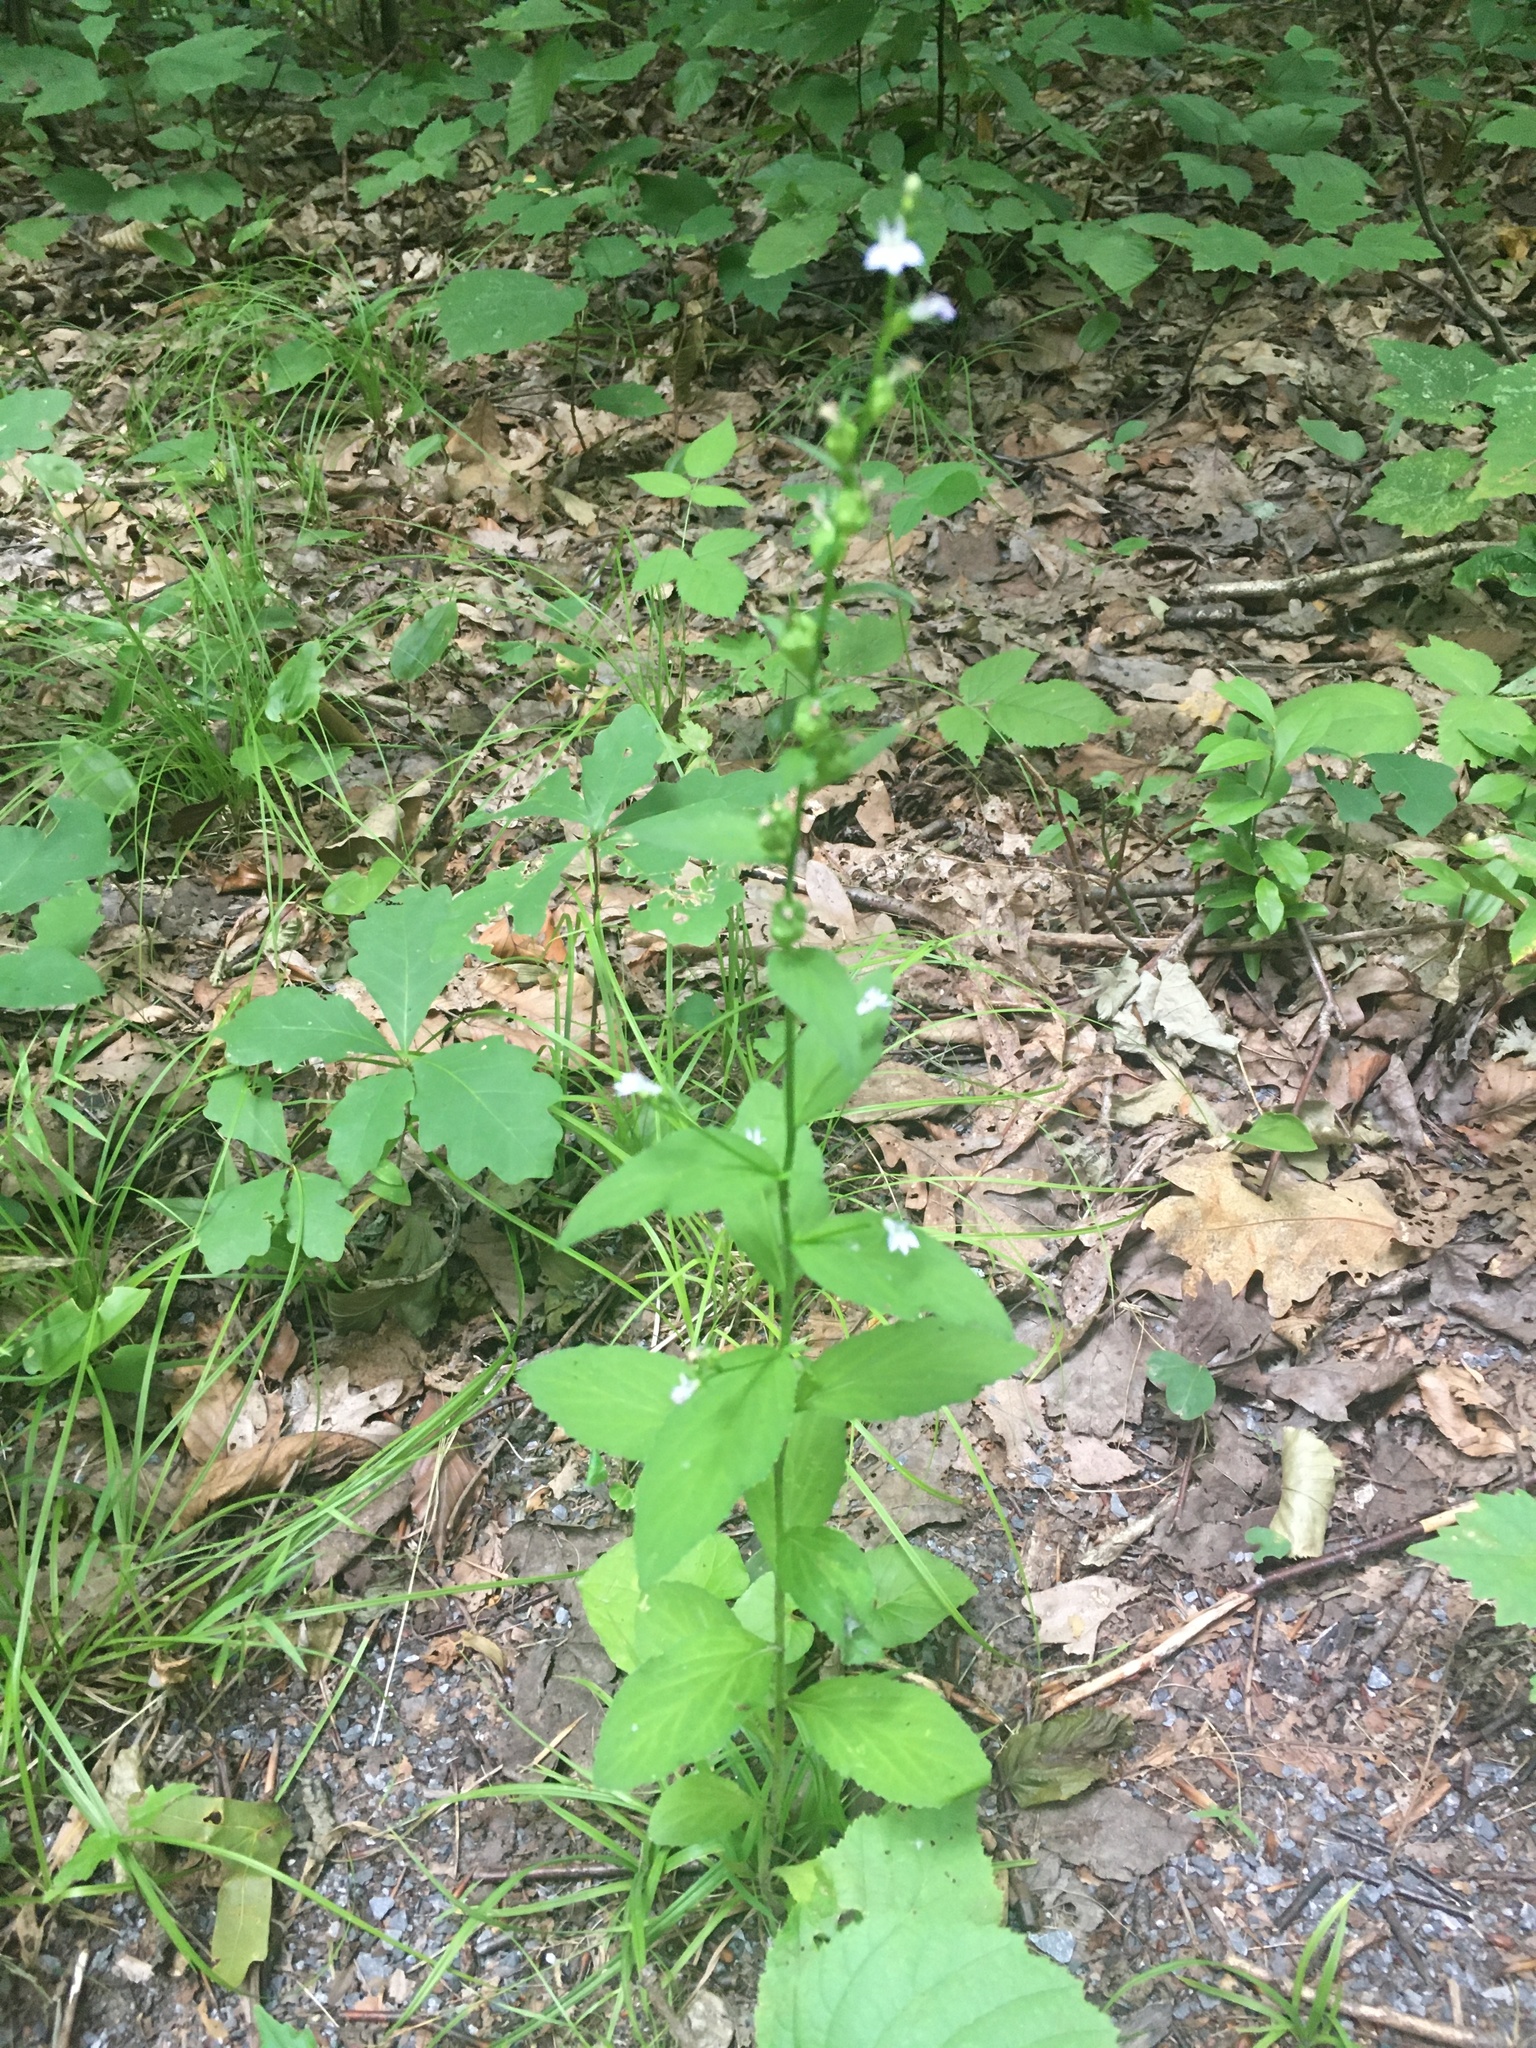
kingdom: Plantae
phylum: Tracheophyta
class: Magnoliopsida
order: Asterales
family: Campanulaceae
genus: Lobelia
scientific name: Lobelia inflata
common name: Indian tobacco
